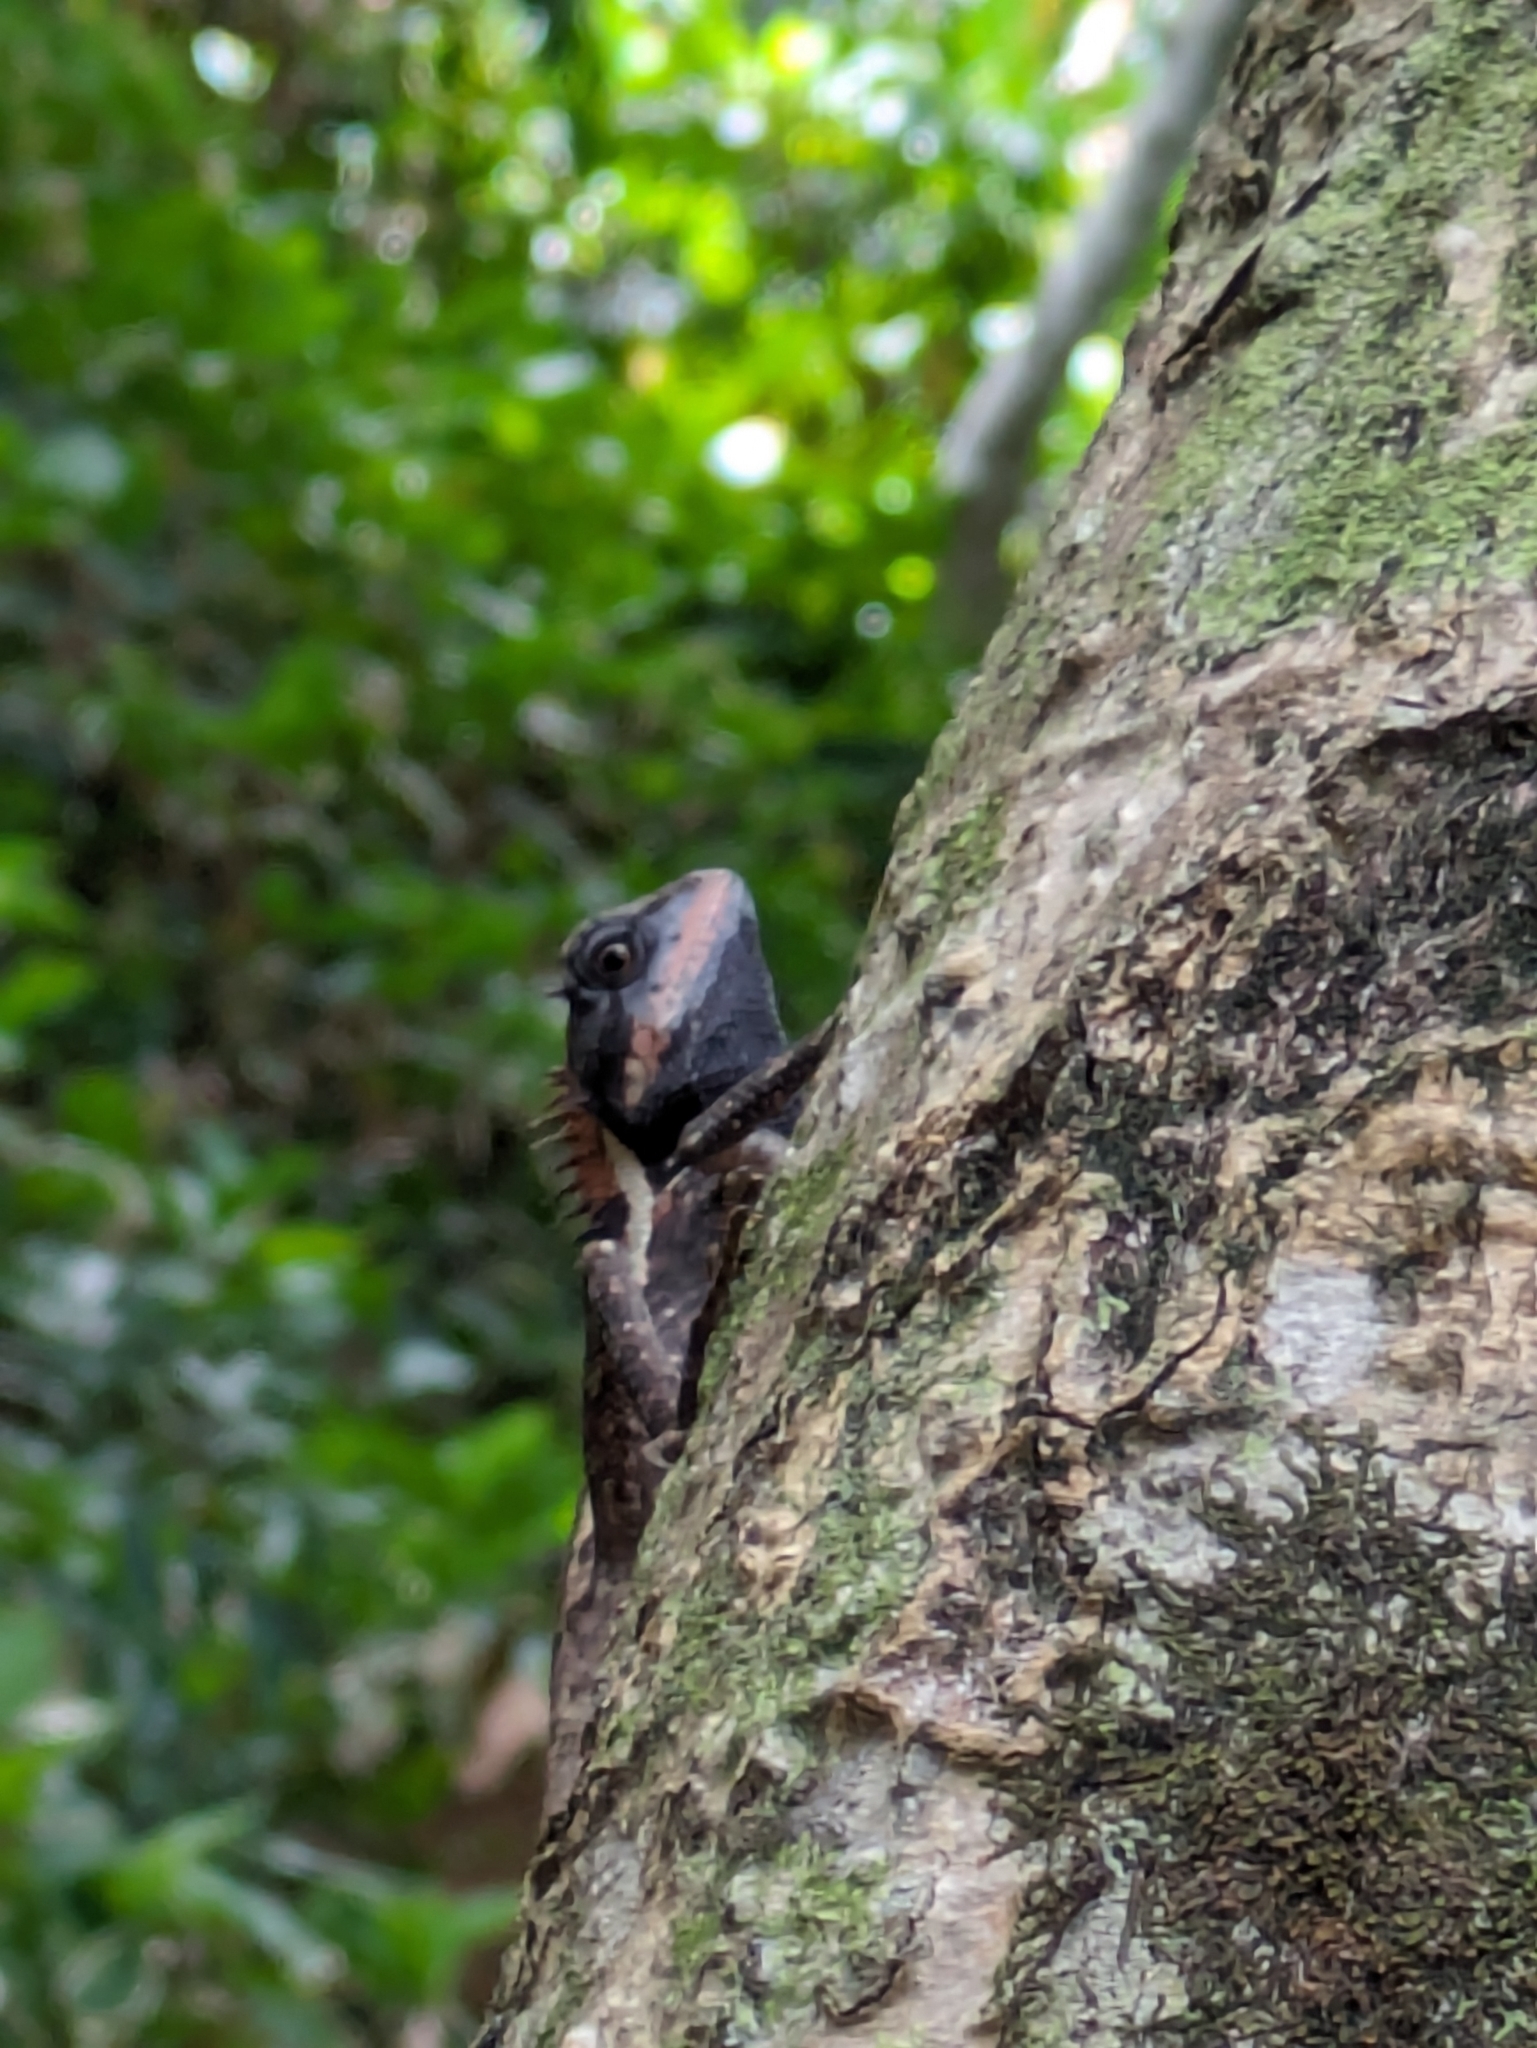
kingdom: Animalia
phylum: Chordata
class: Squamata
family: Agamidae
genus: Calotes
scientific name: Calotes emma
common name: Thailand bloodsucker
